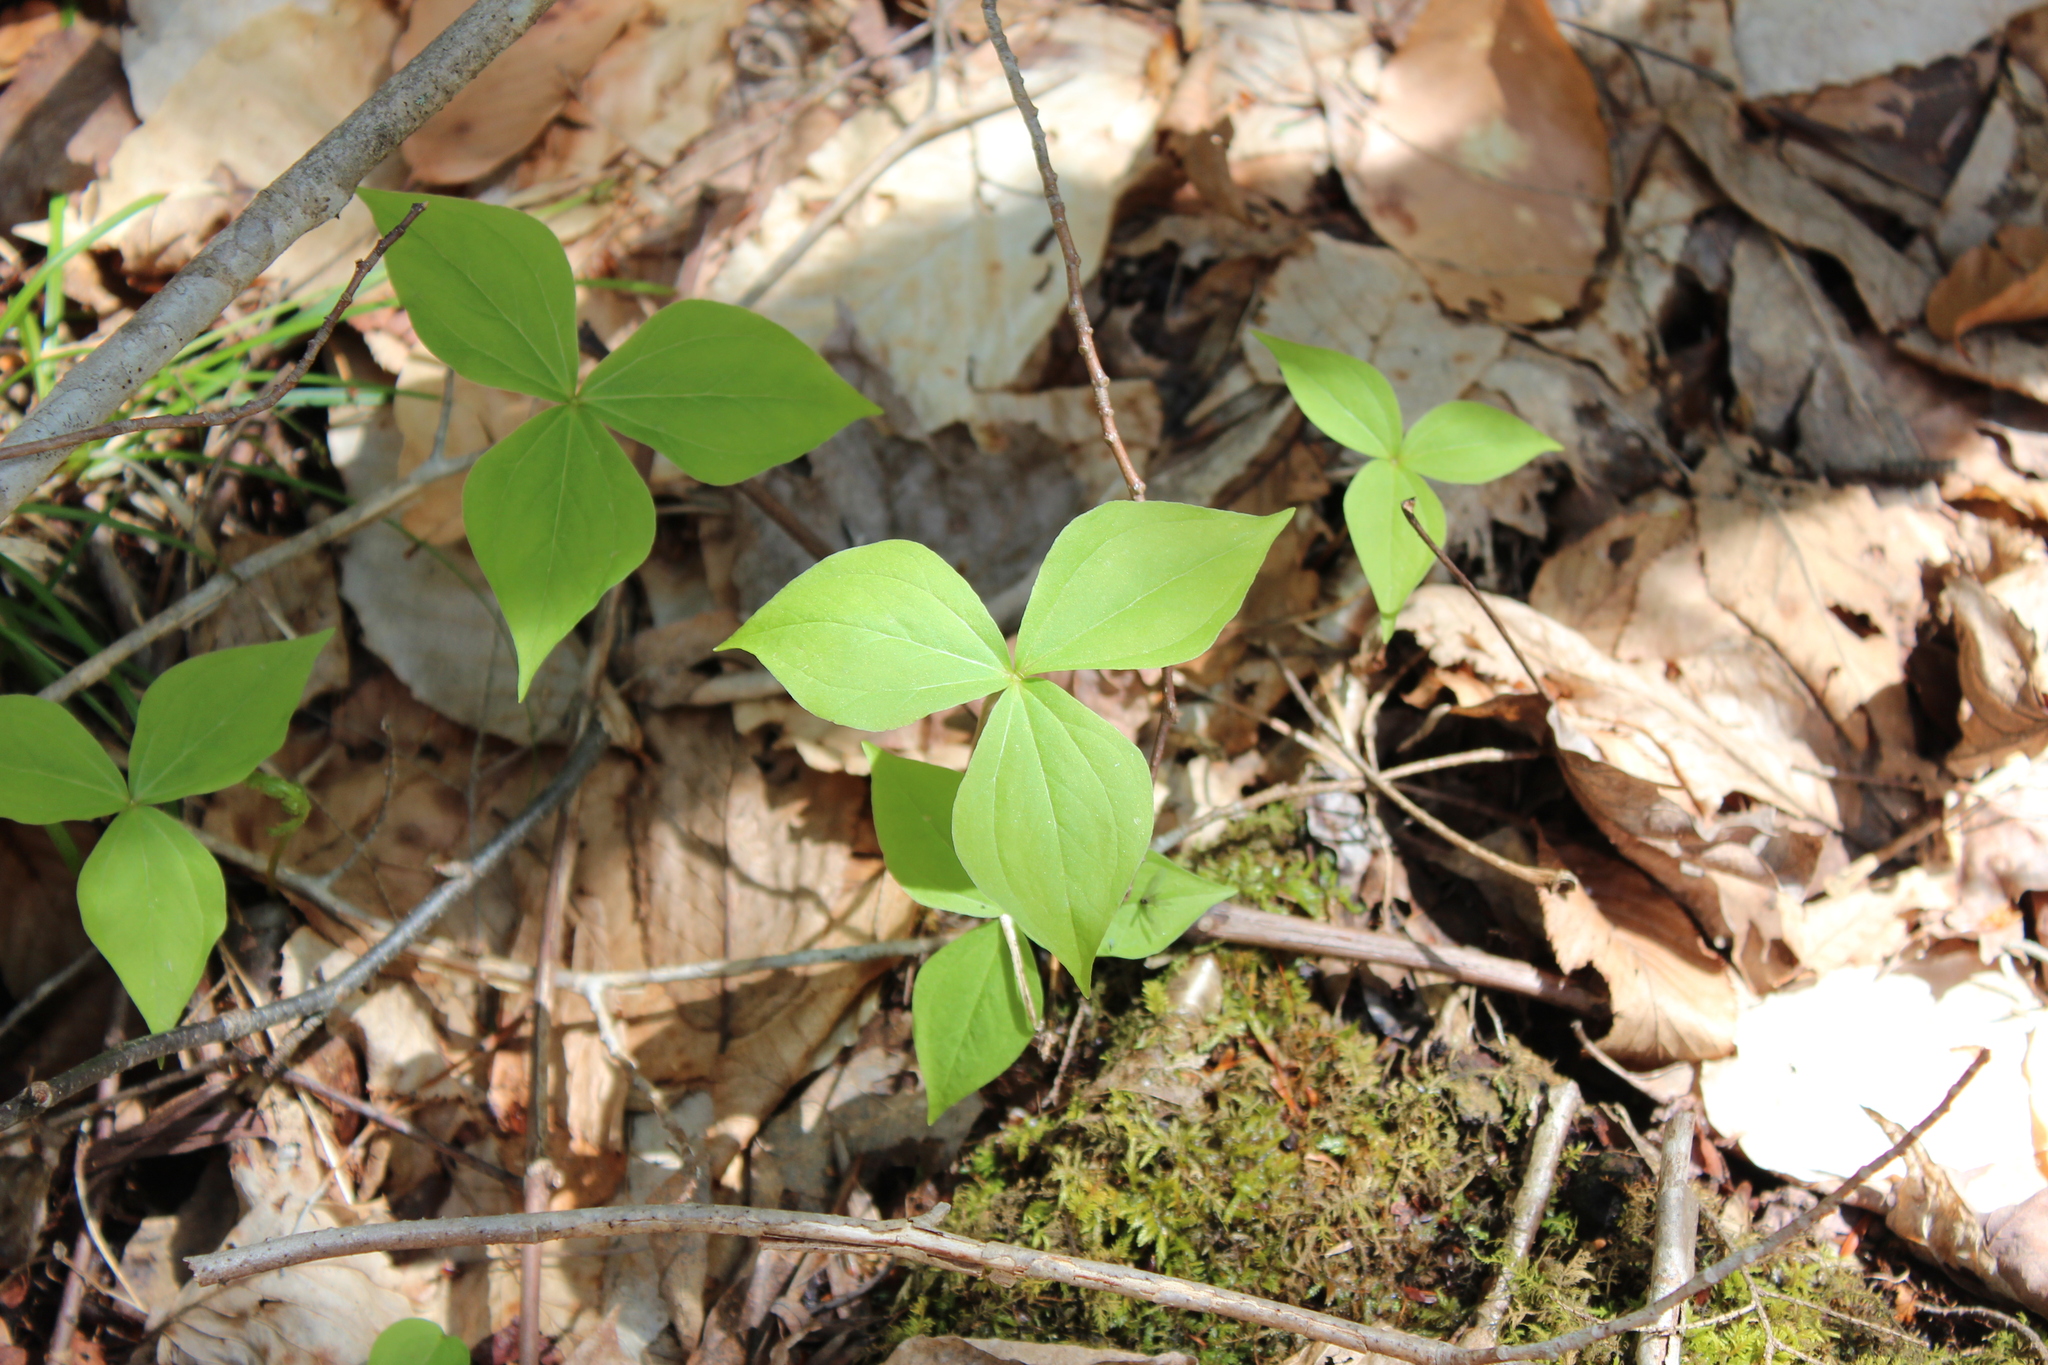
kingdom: Plantae
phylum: Tracheophyta
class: Liliopsida
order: Liliales
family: Melanthiaceae
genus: Trillium
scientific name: Trillium erectum
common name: Purple trillium
